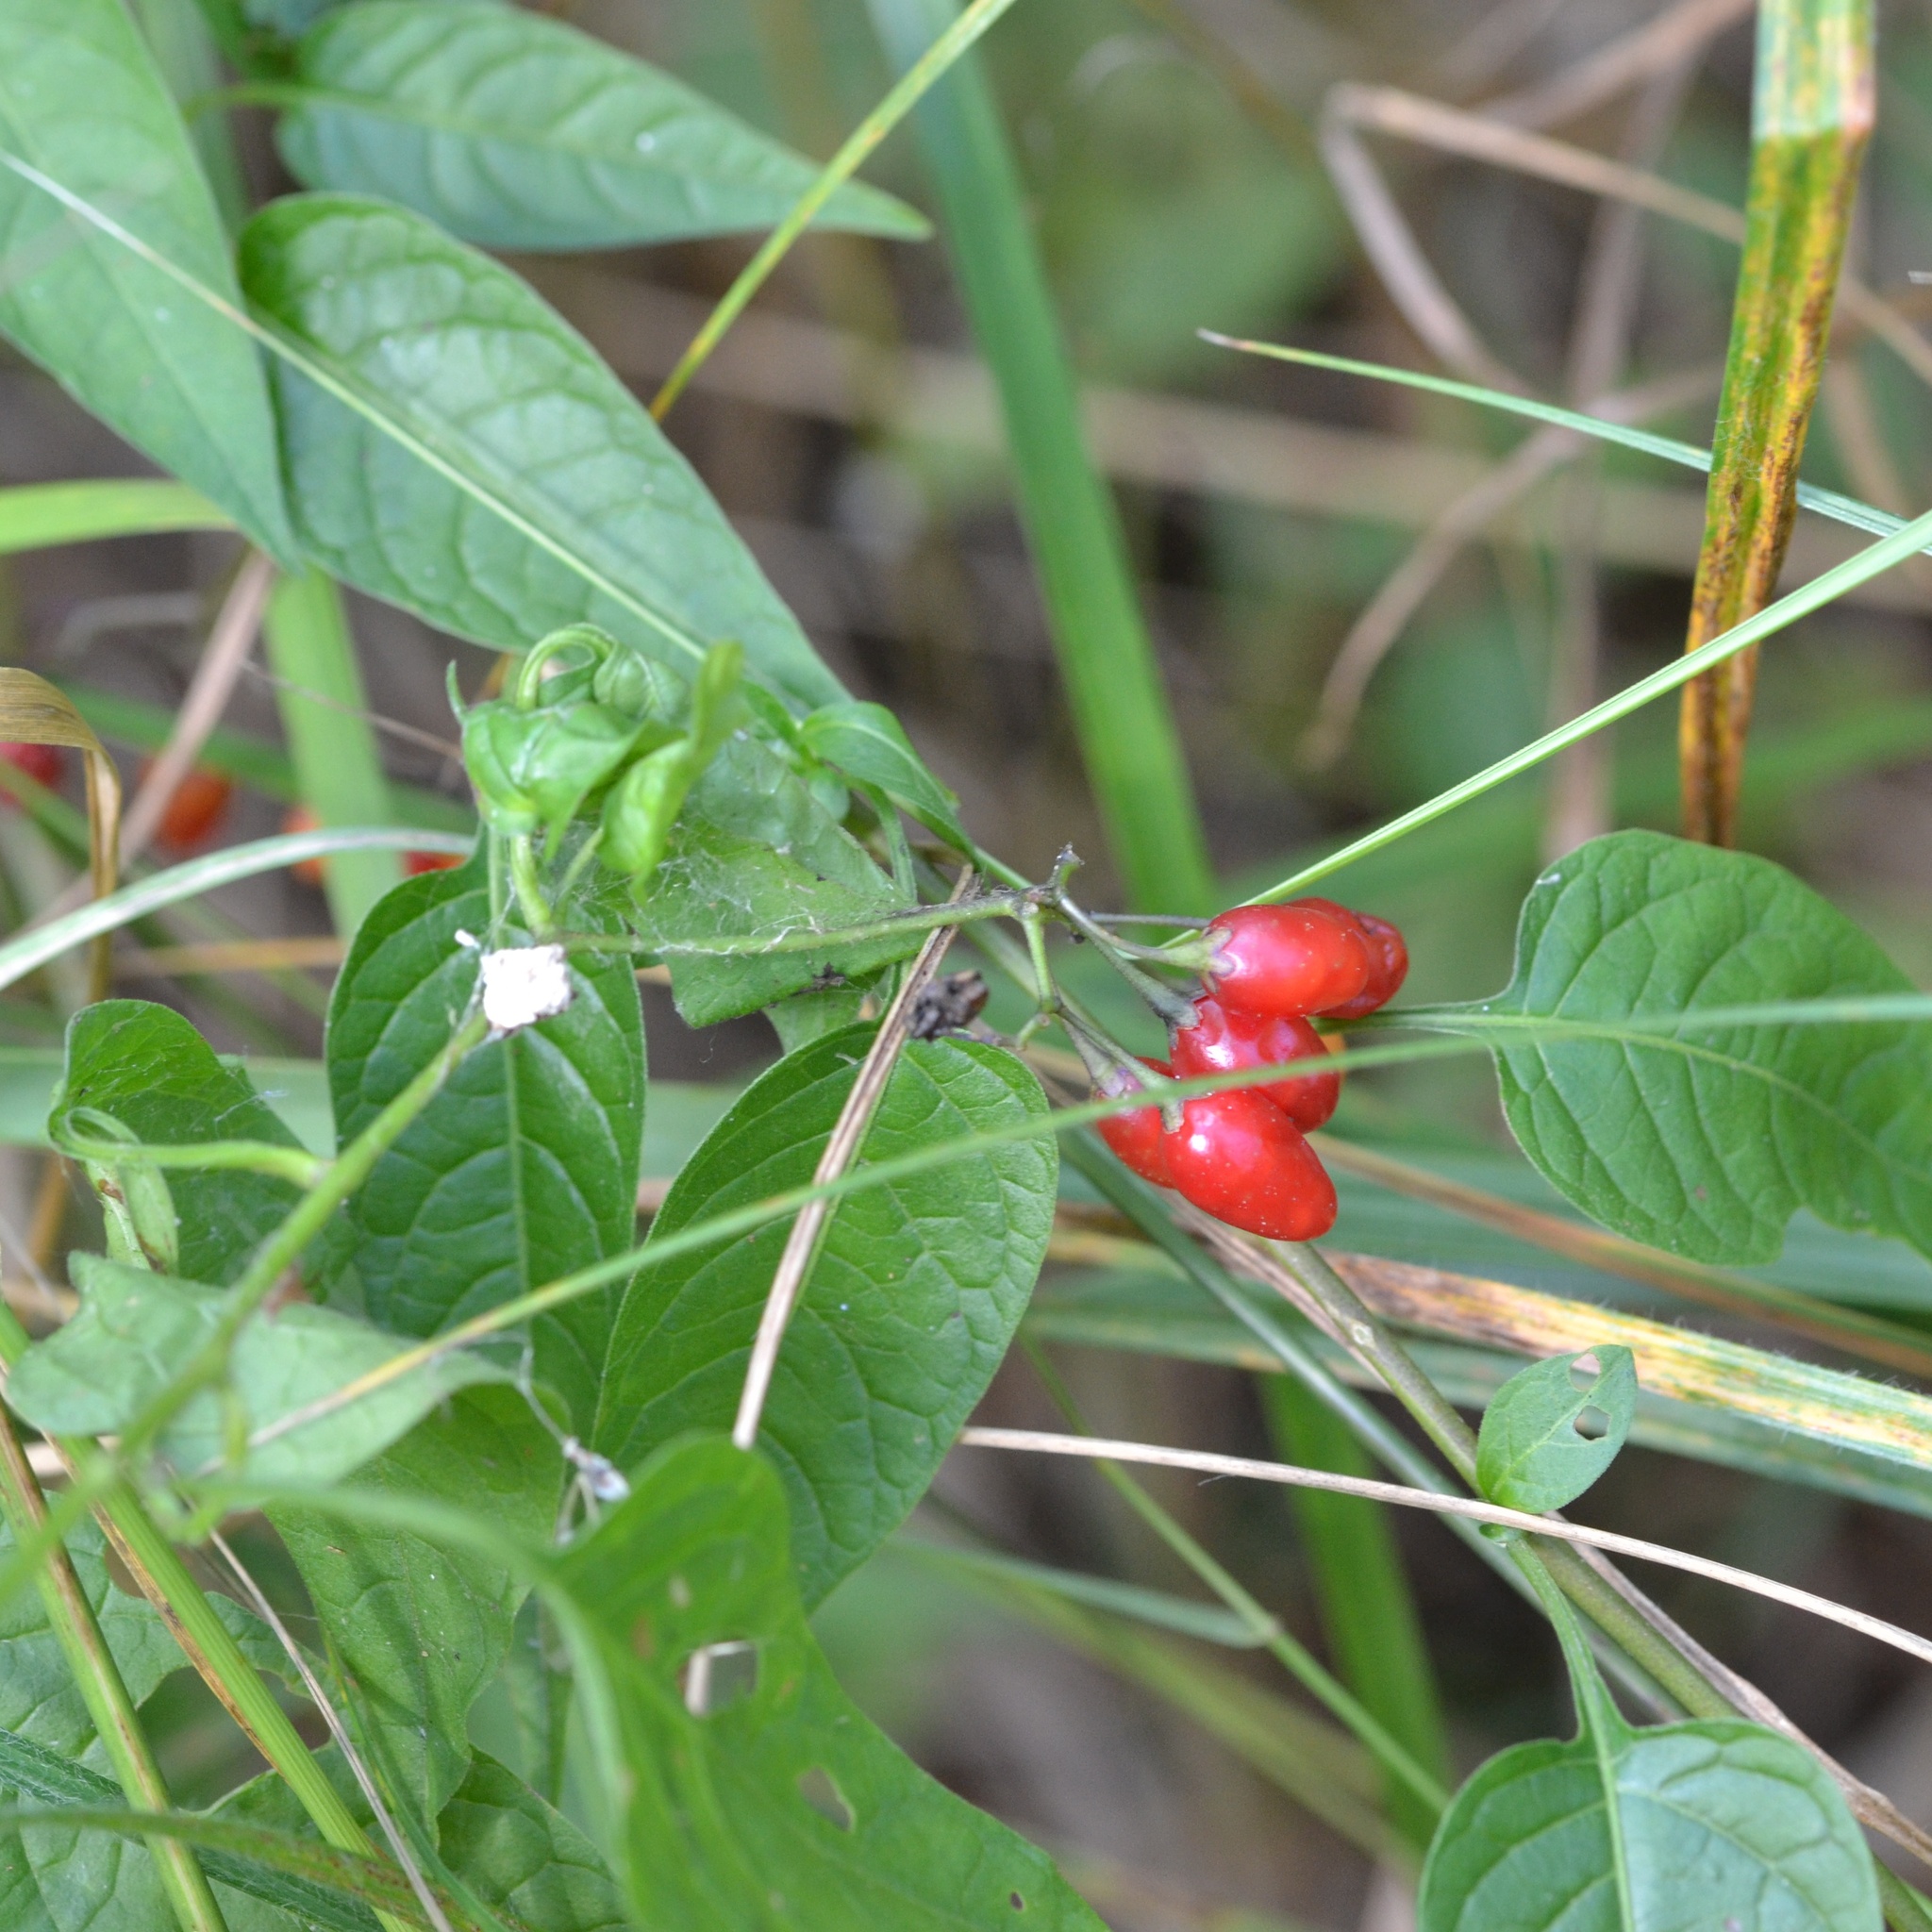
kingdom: Plantae
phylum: Tracheophyta
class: Magnoliopsida
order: Solanales
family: Solanaceae
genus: Solanum
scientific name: Solanum dulcamara
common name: Climbing nightshade
